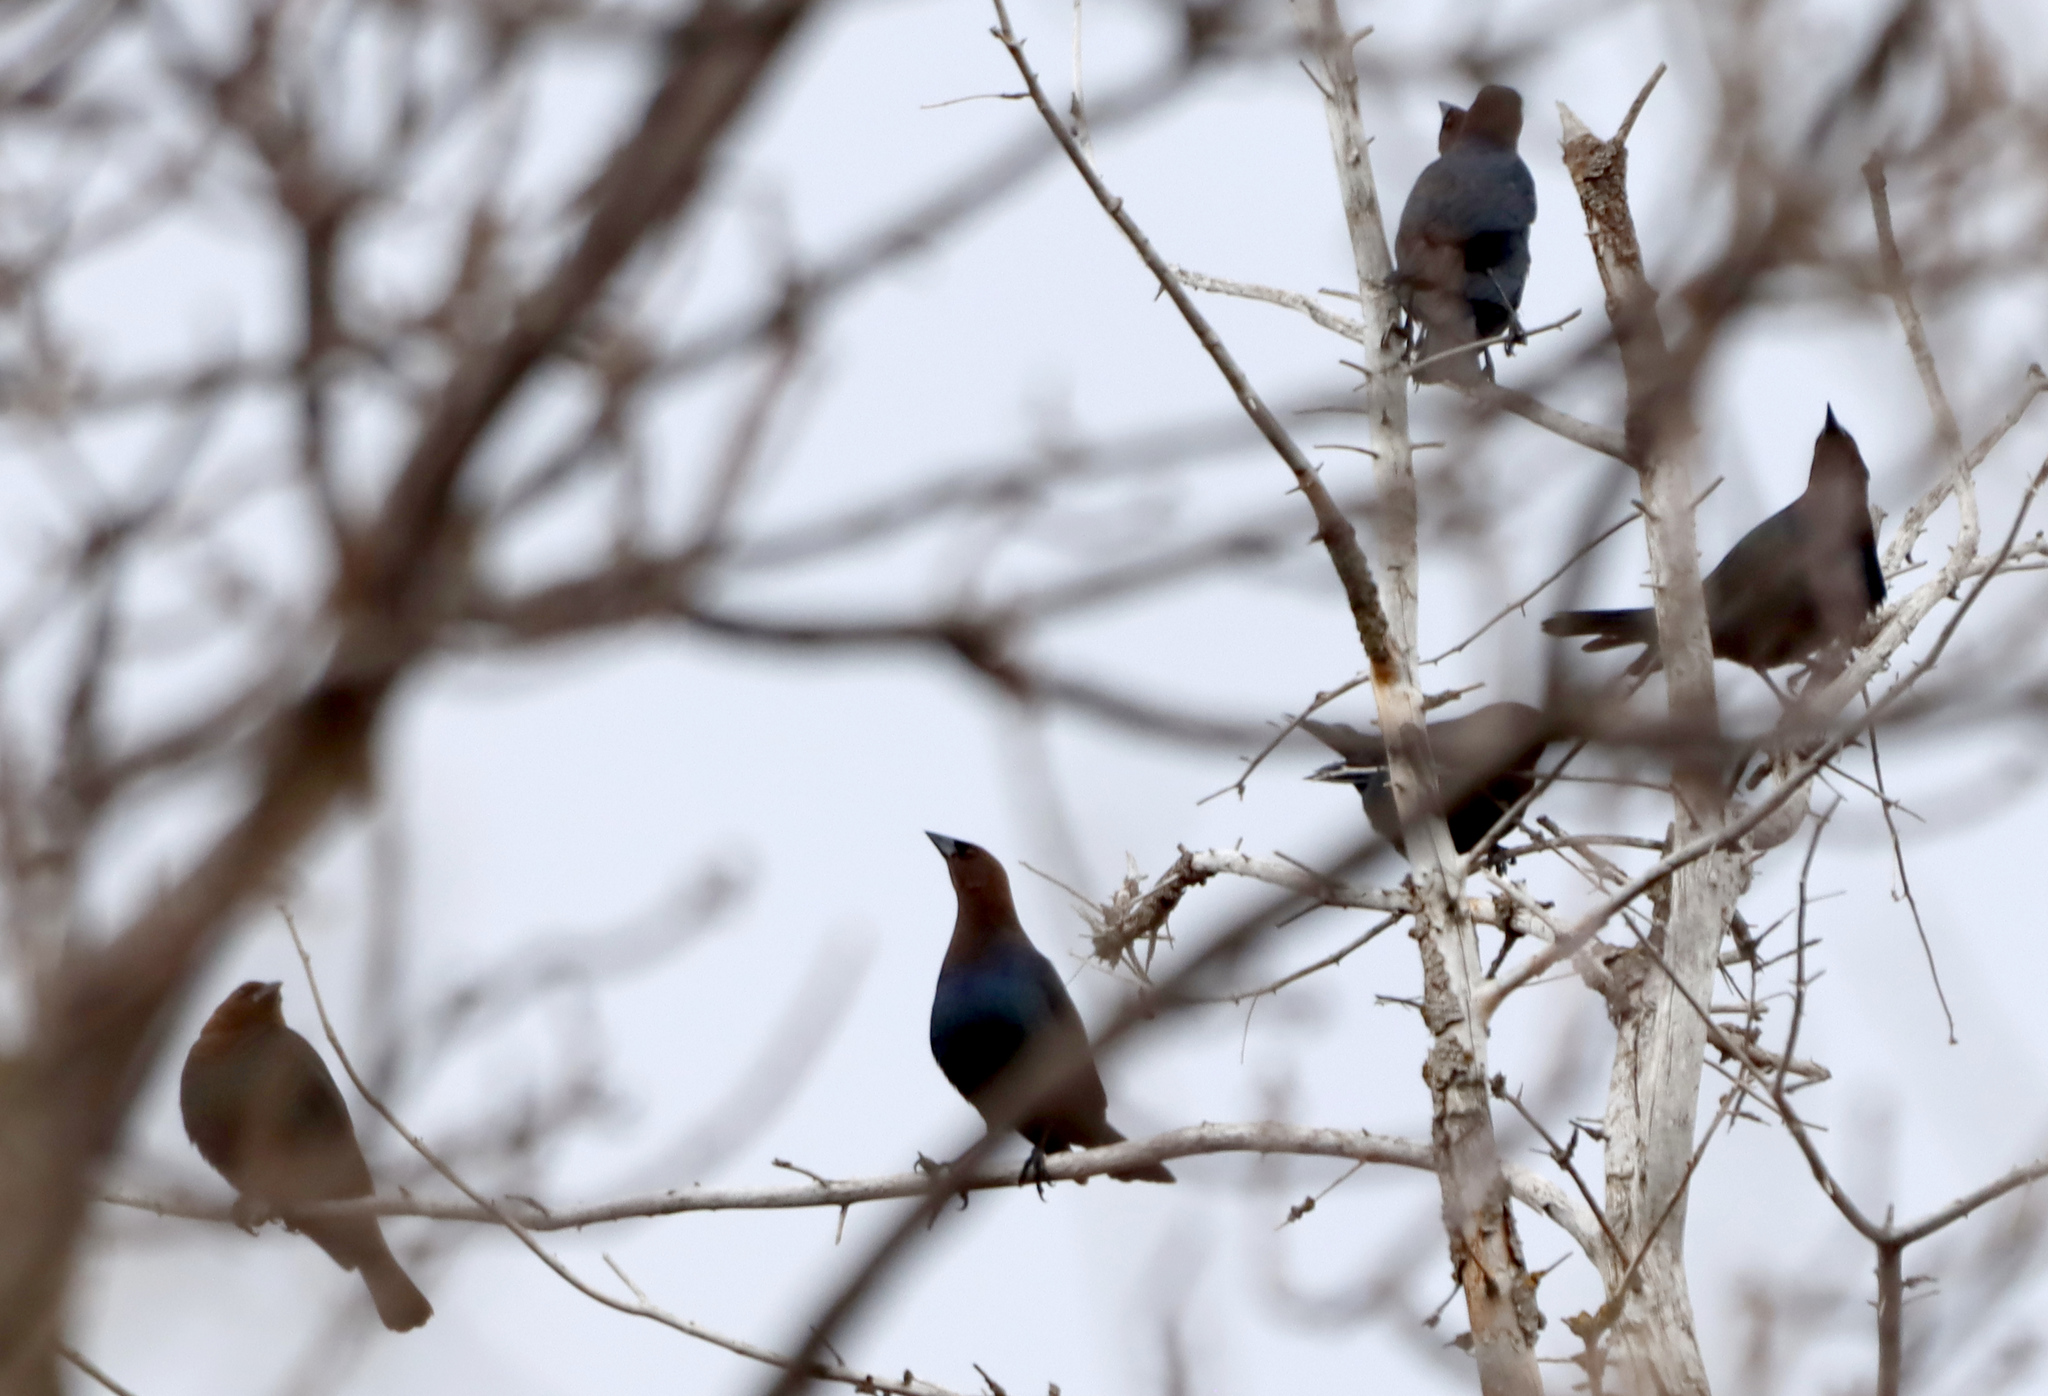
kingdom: Animalia
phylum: Chordata
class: Aves
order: Passeriformes
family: Icteridae
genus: Molothrus
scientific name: Molothrus ater
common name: Brown-headed cowbird
